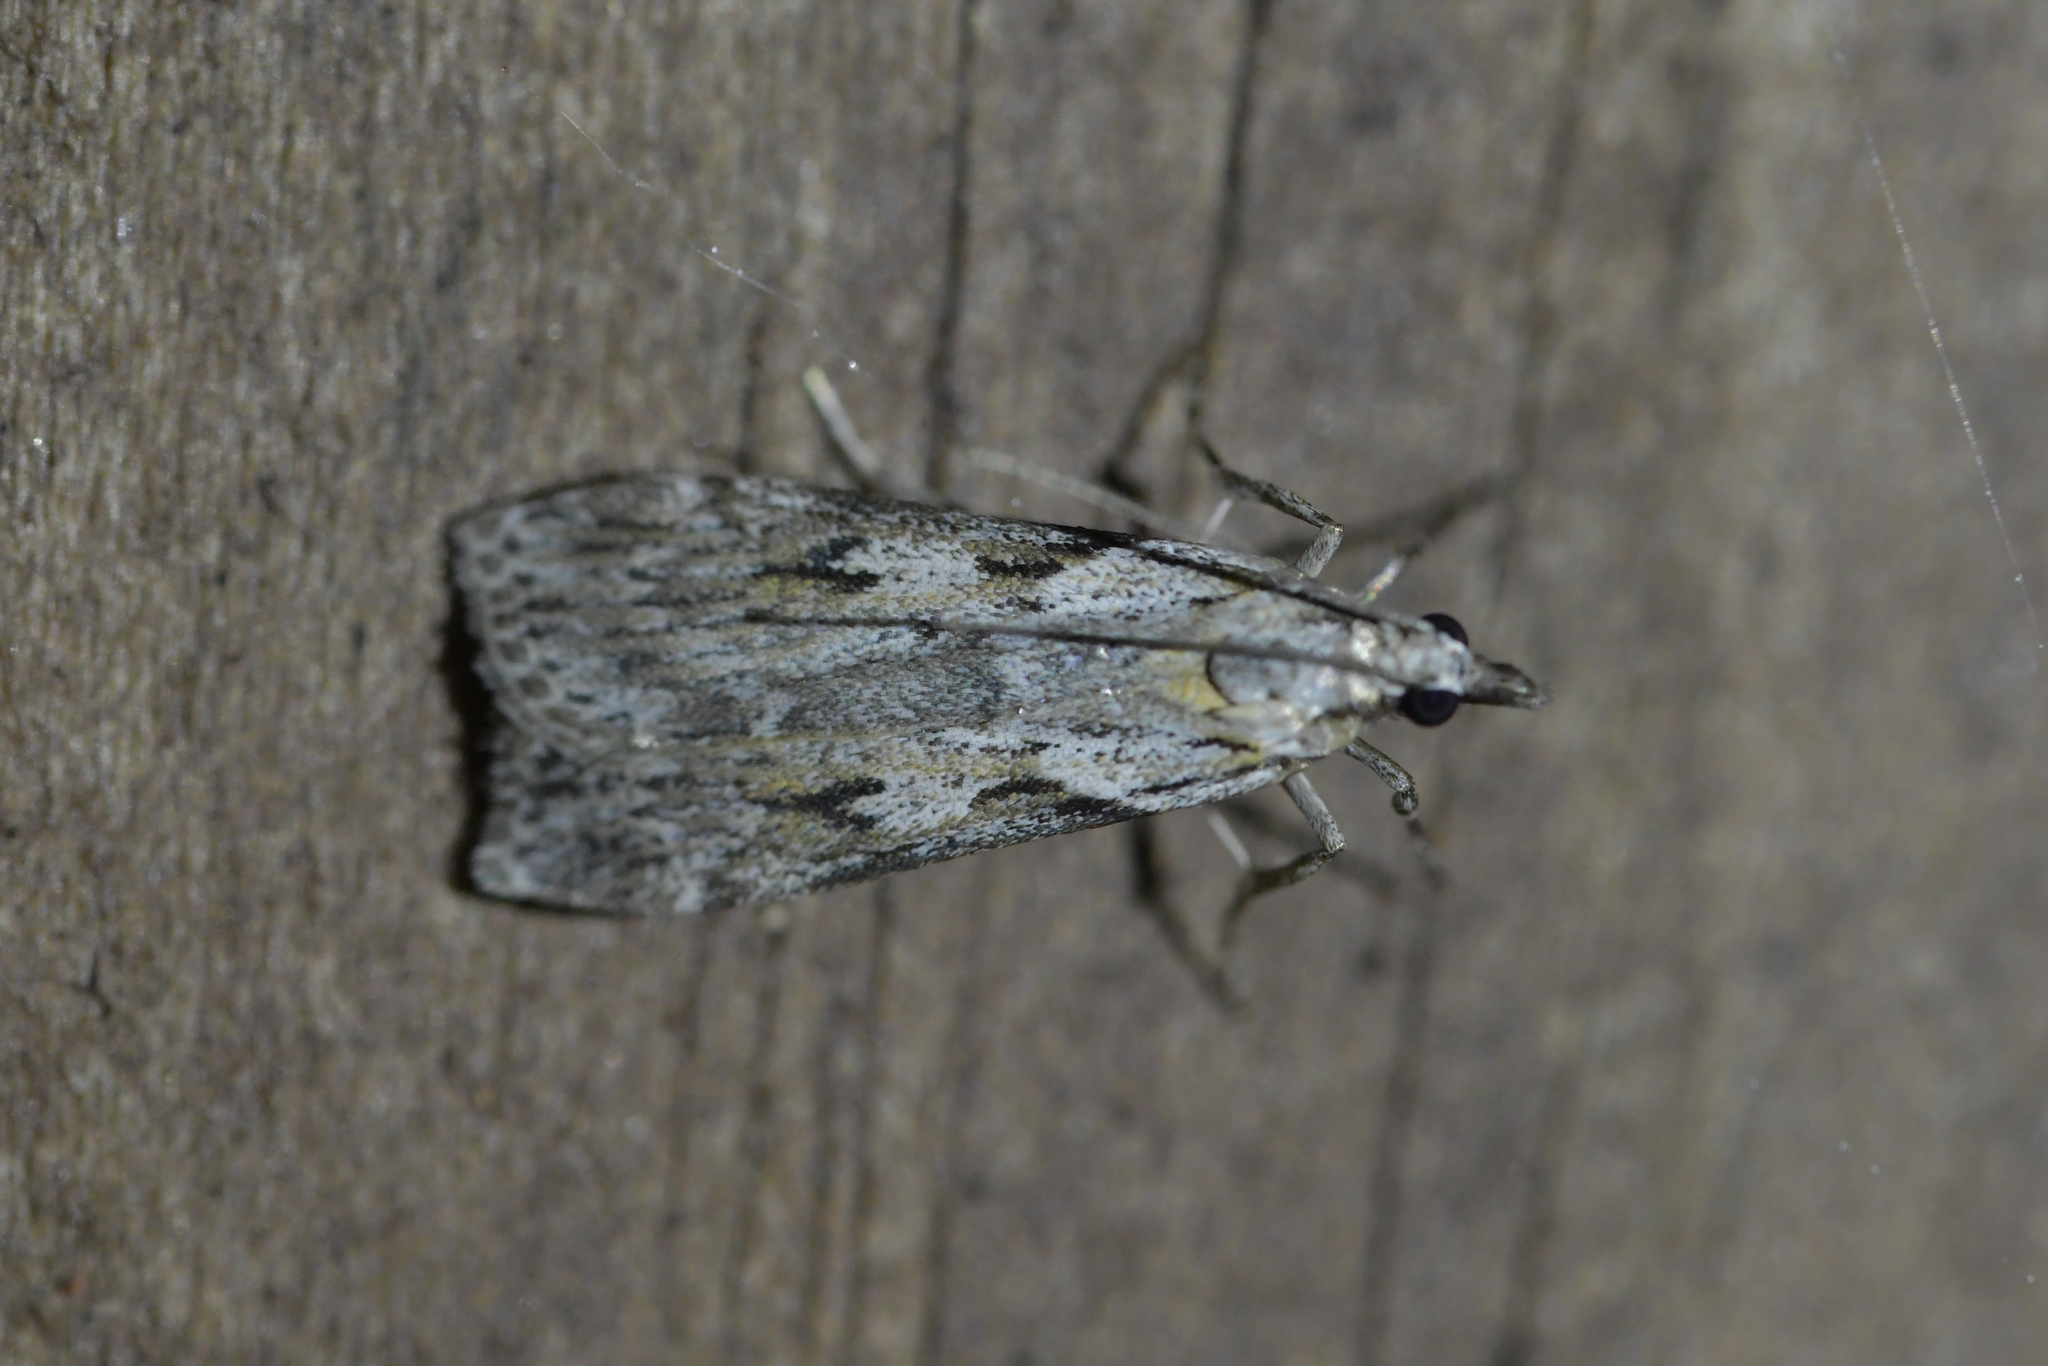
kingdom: Animalia
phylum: Arthropoda
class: Insecta
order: Lepidoptera
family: Crambidae
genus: Scoparia
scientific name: Scoparia halopis
